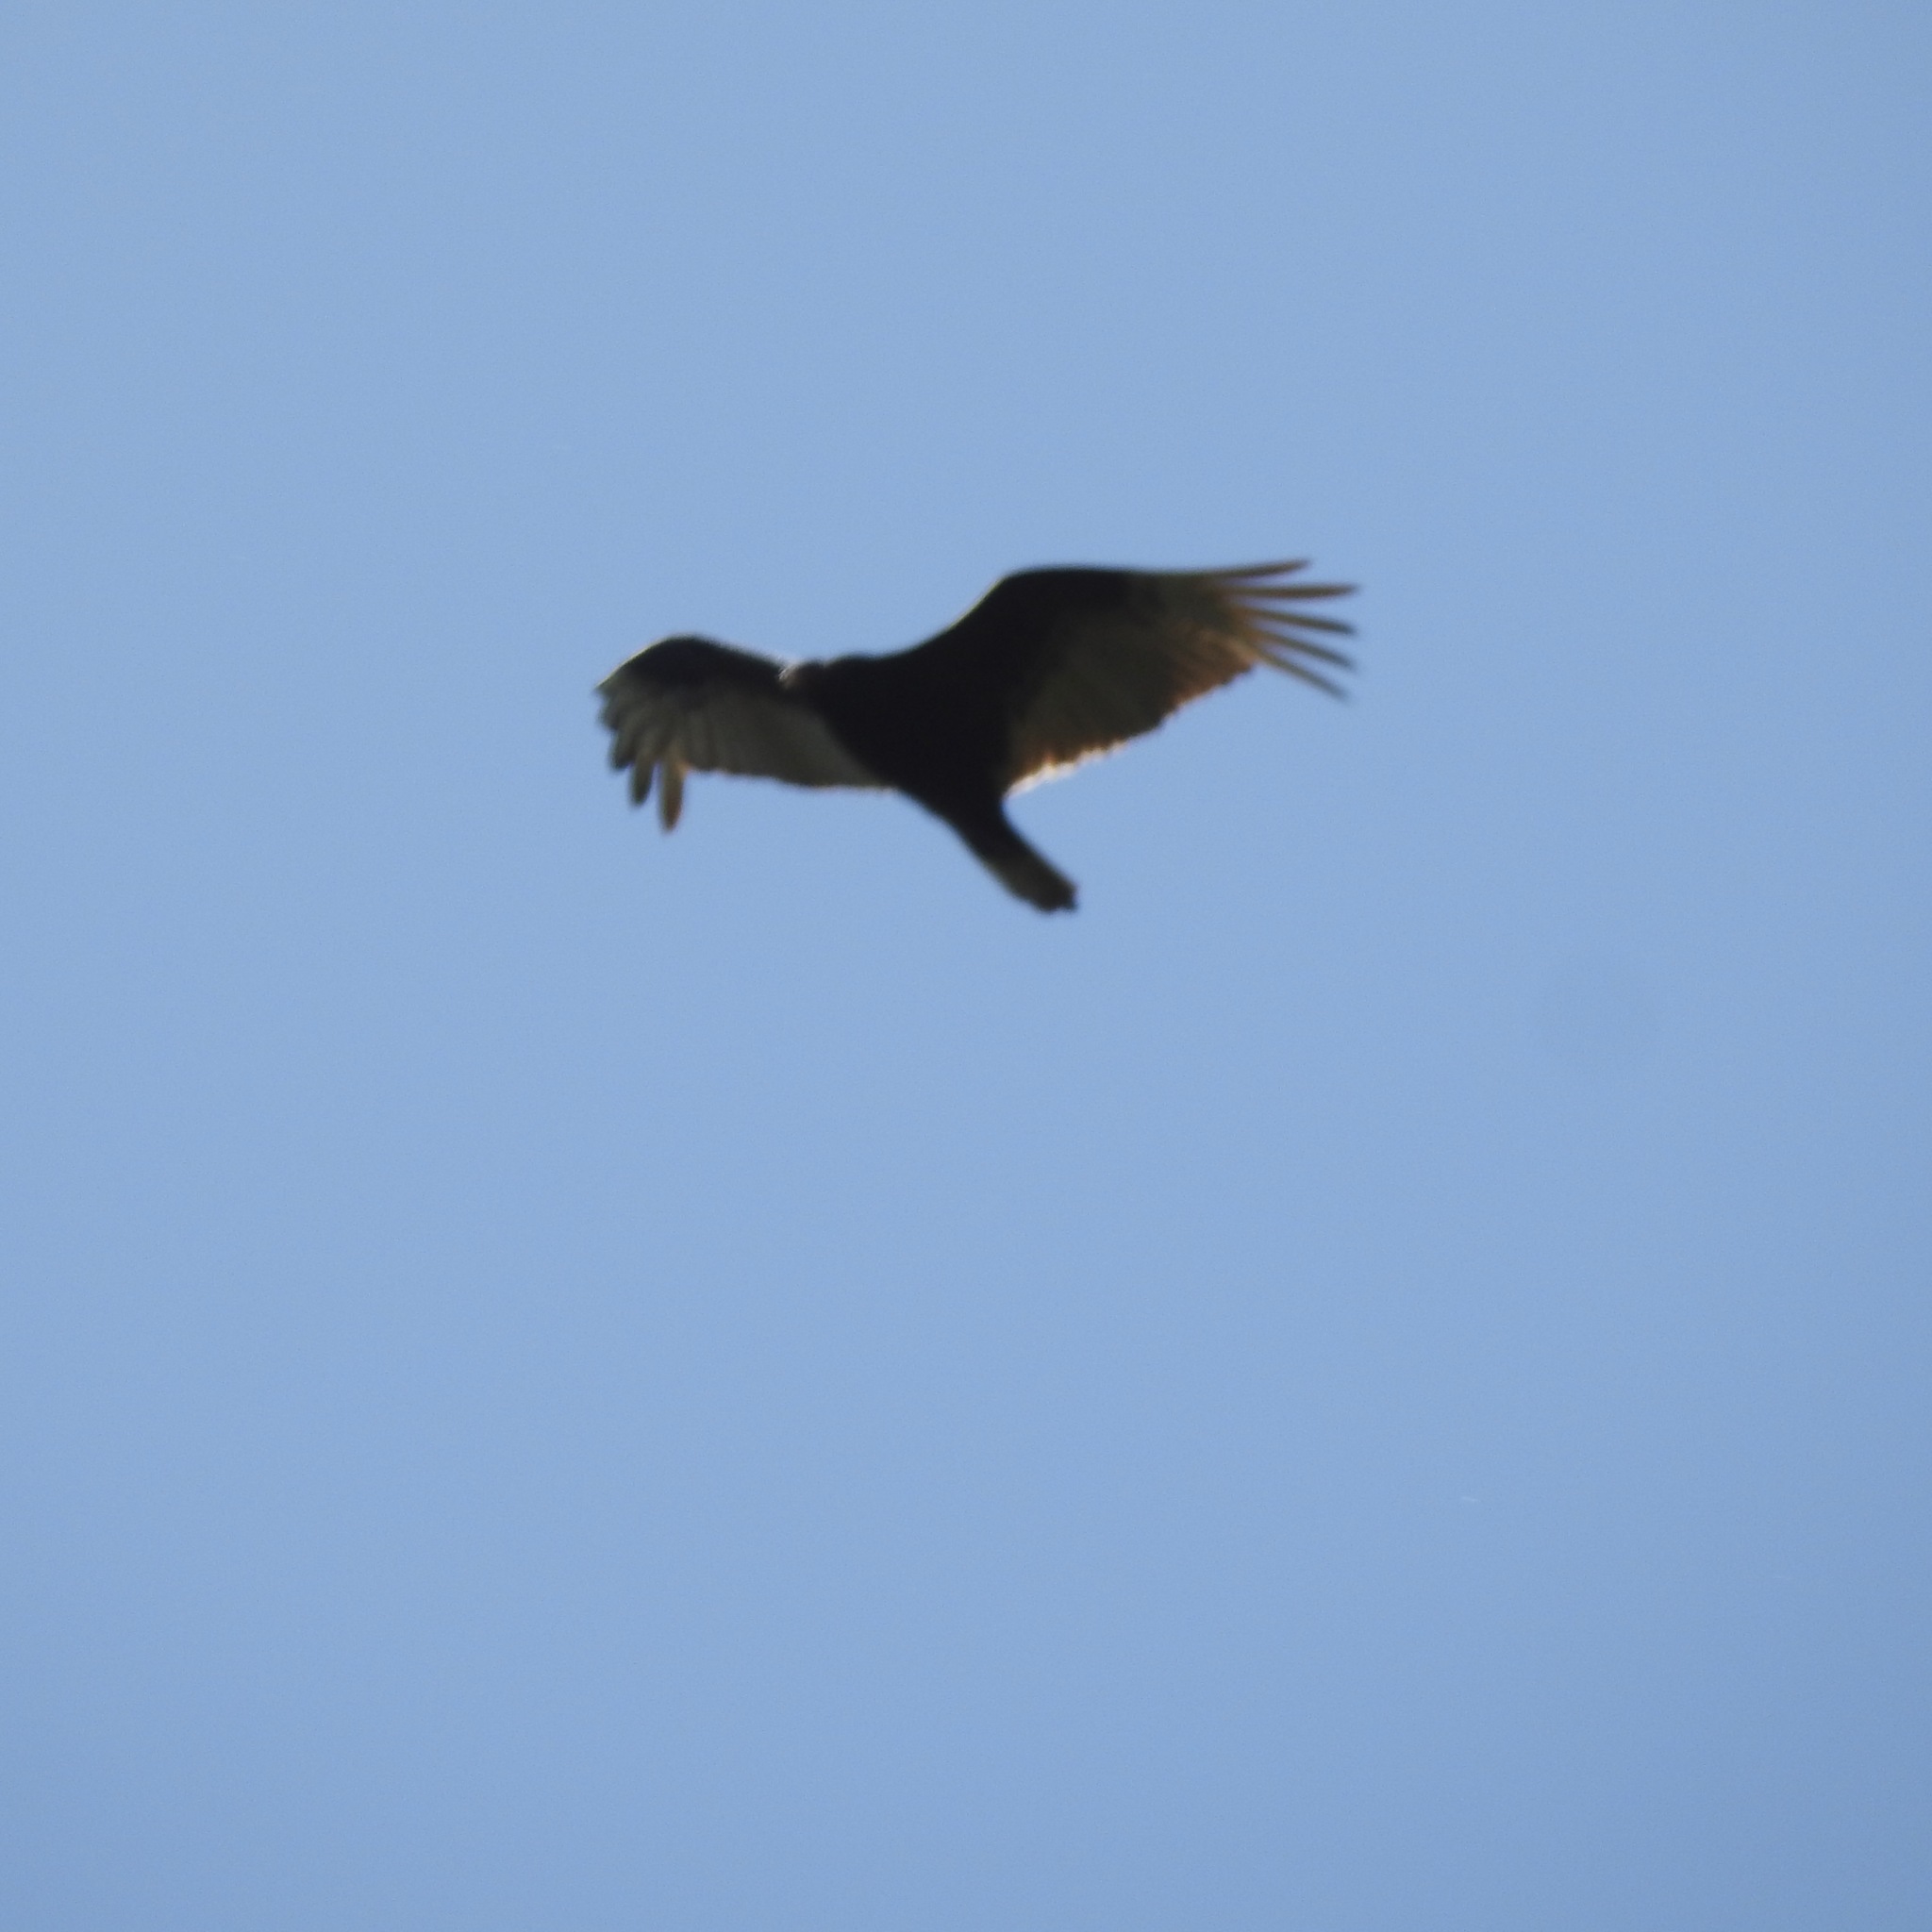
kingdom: Animalia
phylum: Chordata
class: Aves
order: Accipitriformes
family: Cathartidae
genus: Cathartes
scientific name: Cathartes aura
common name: Turkey vulture
